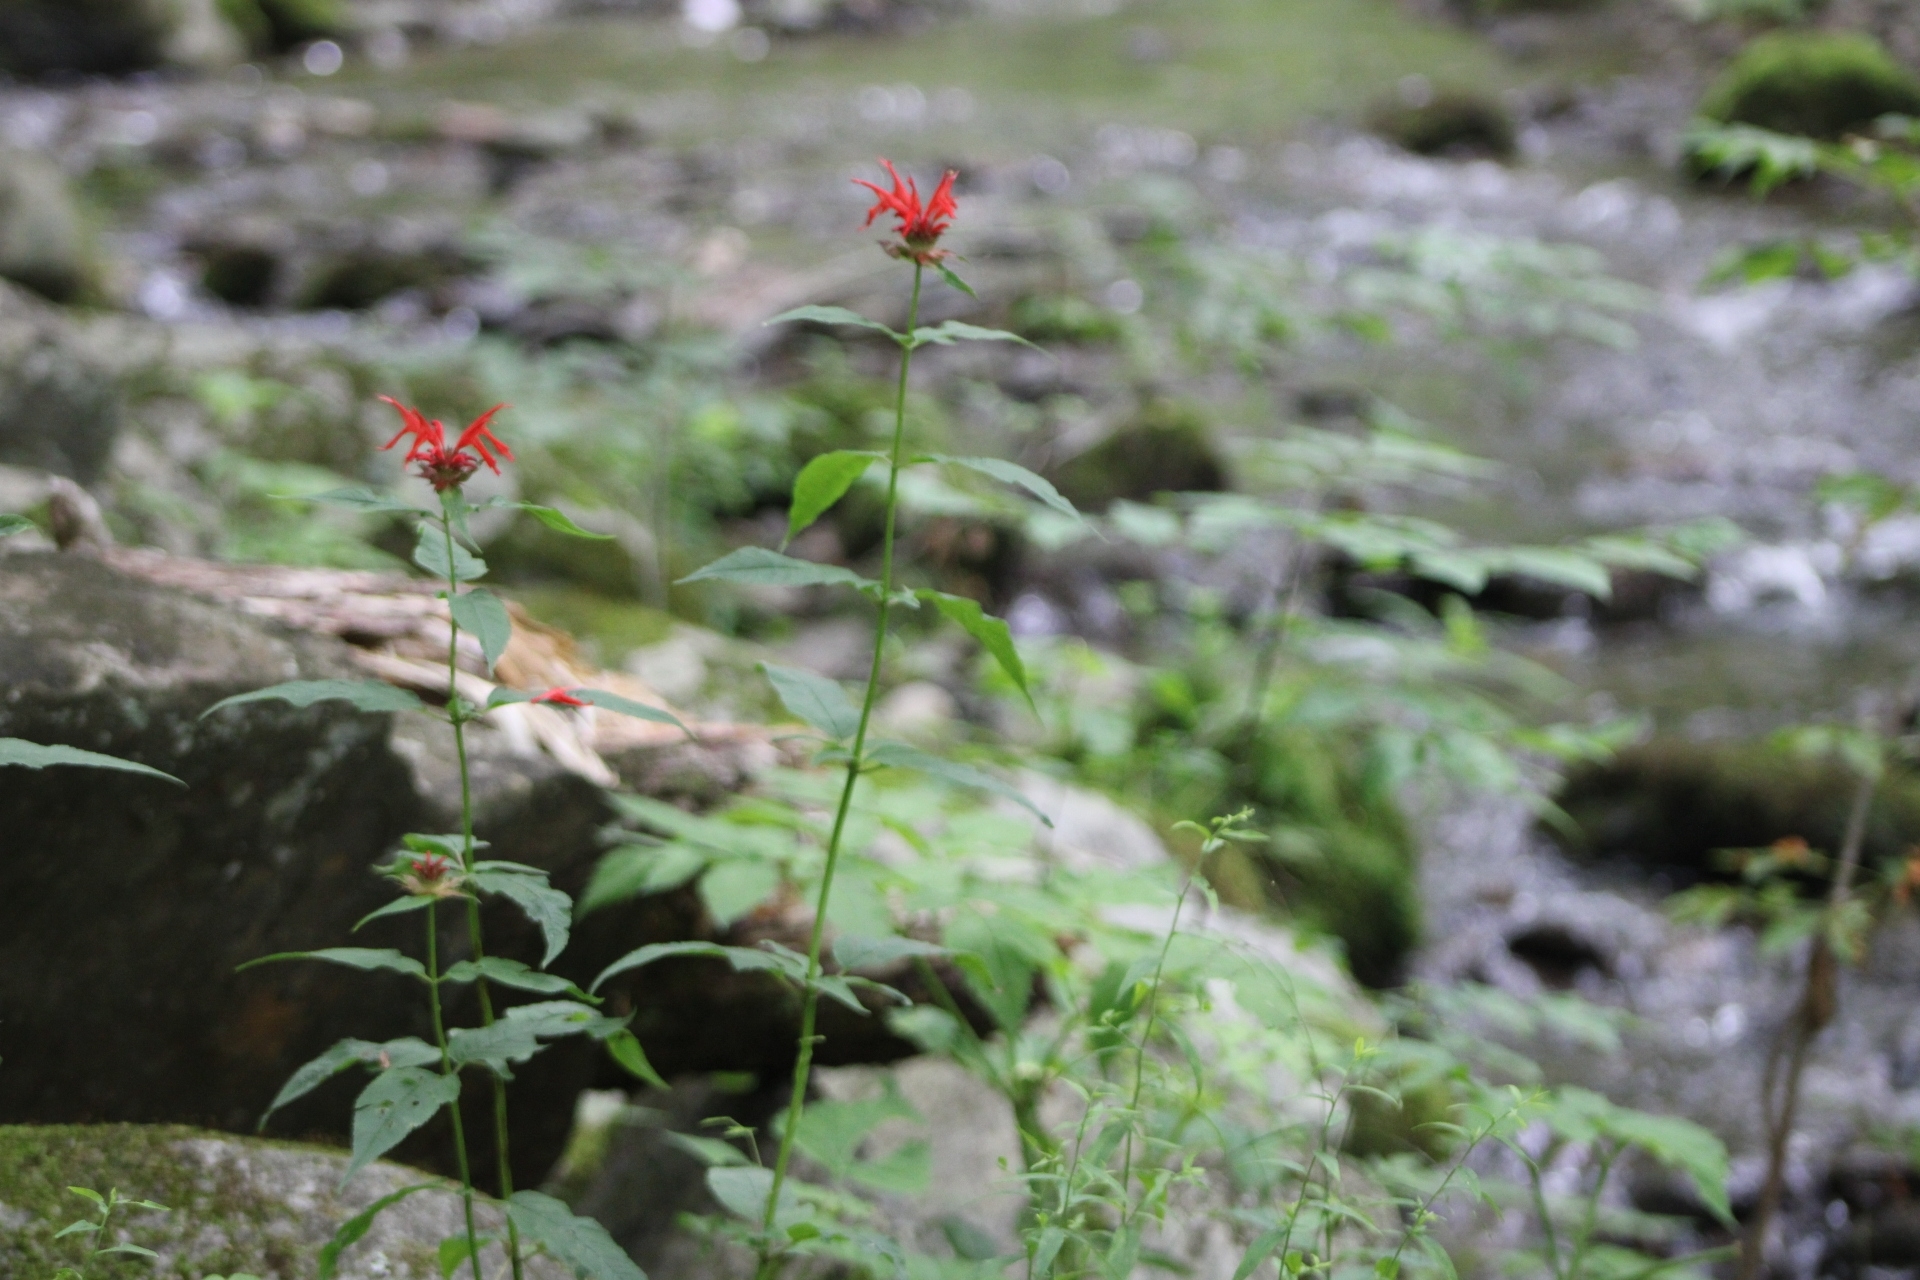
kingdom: Plantae
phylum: Tracheophyta
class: Magnoliopsida
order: Lamiales
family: Lamiaceae
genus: Monarda
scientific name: Monarda didyma
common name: Beebalm
